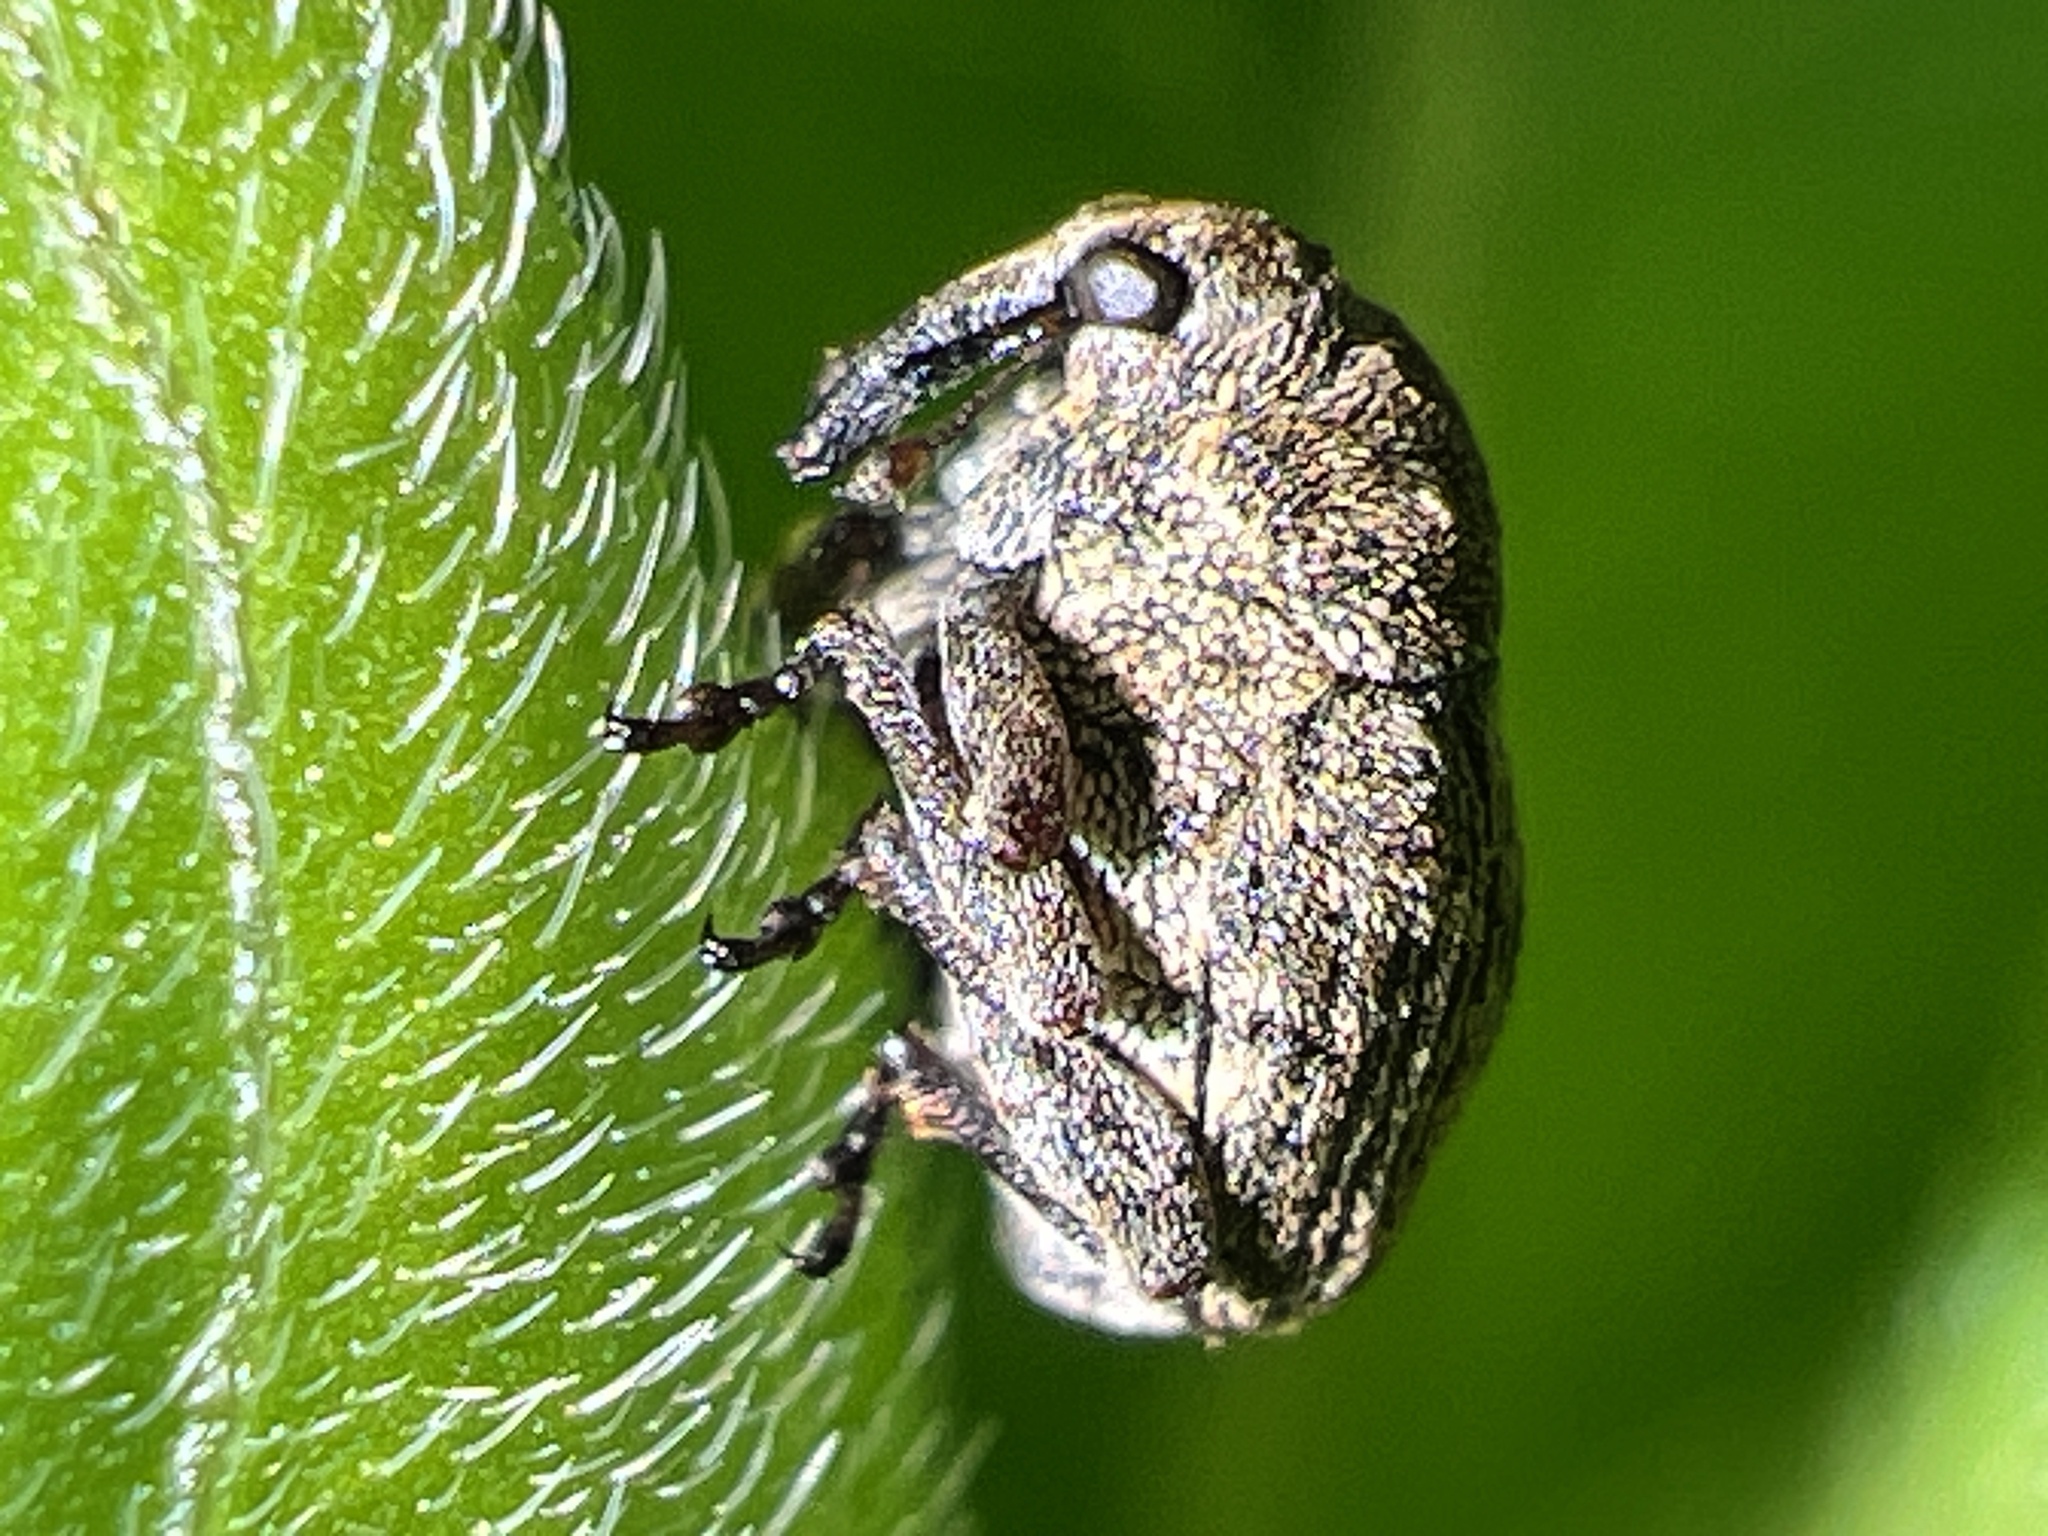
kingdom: Animalia
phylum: Arthropoda
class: Insecta
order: Coleoptera
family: Curculionidae
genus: Acanthoscelidius
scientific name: Acanthoscelidius acephalus
